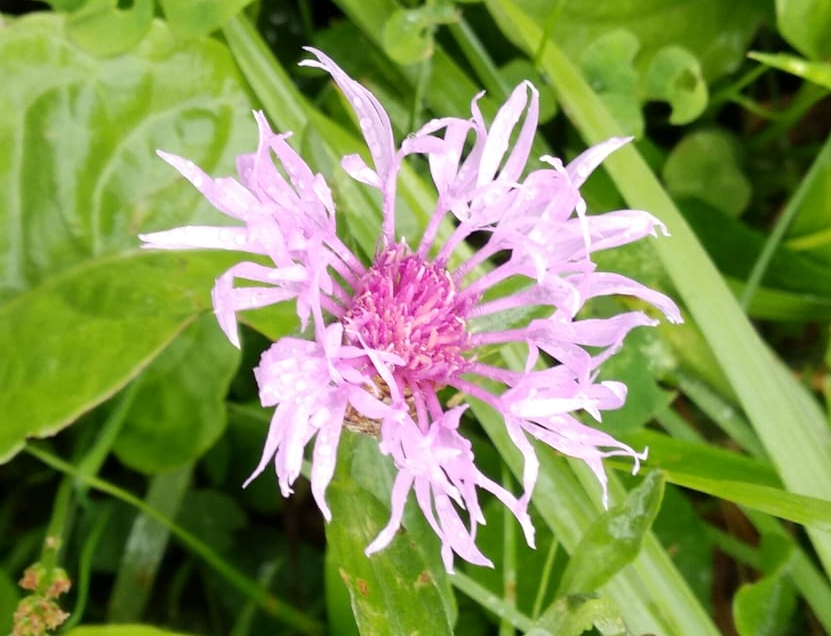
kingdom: Plantae
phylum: Tracheophyta
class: Magnoliopsida
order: Asterales
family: Asteraceae
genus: Centaurea
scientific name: Centaurea jacea
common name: Brown knapweed
